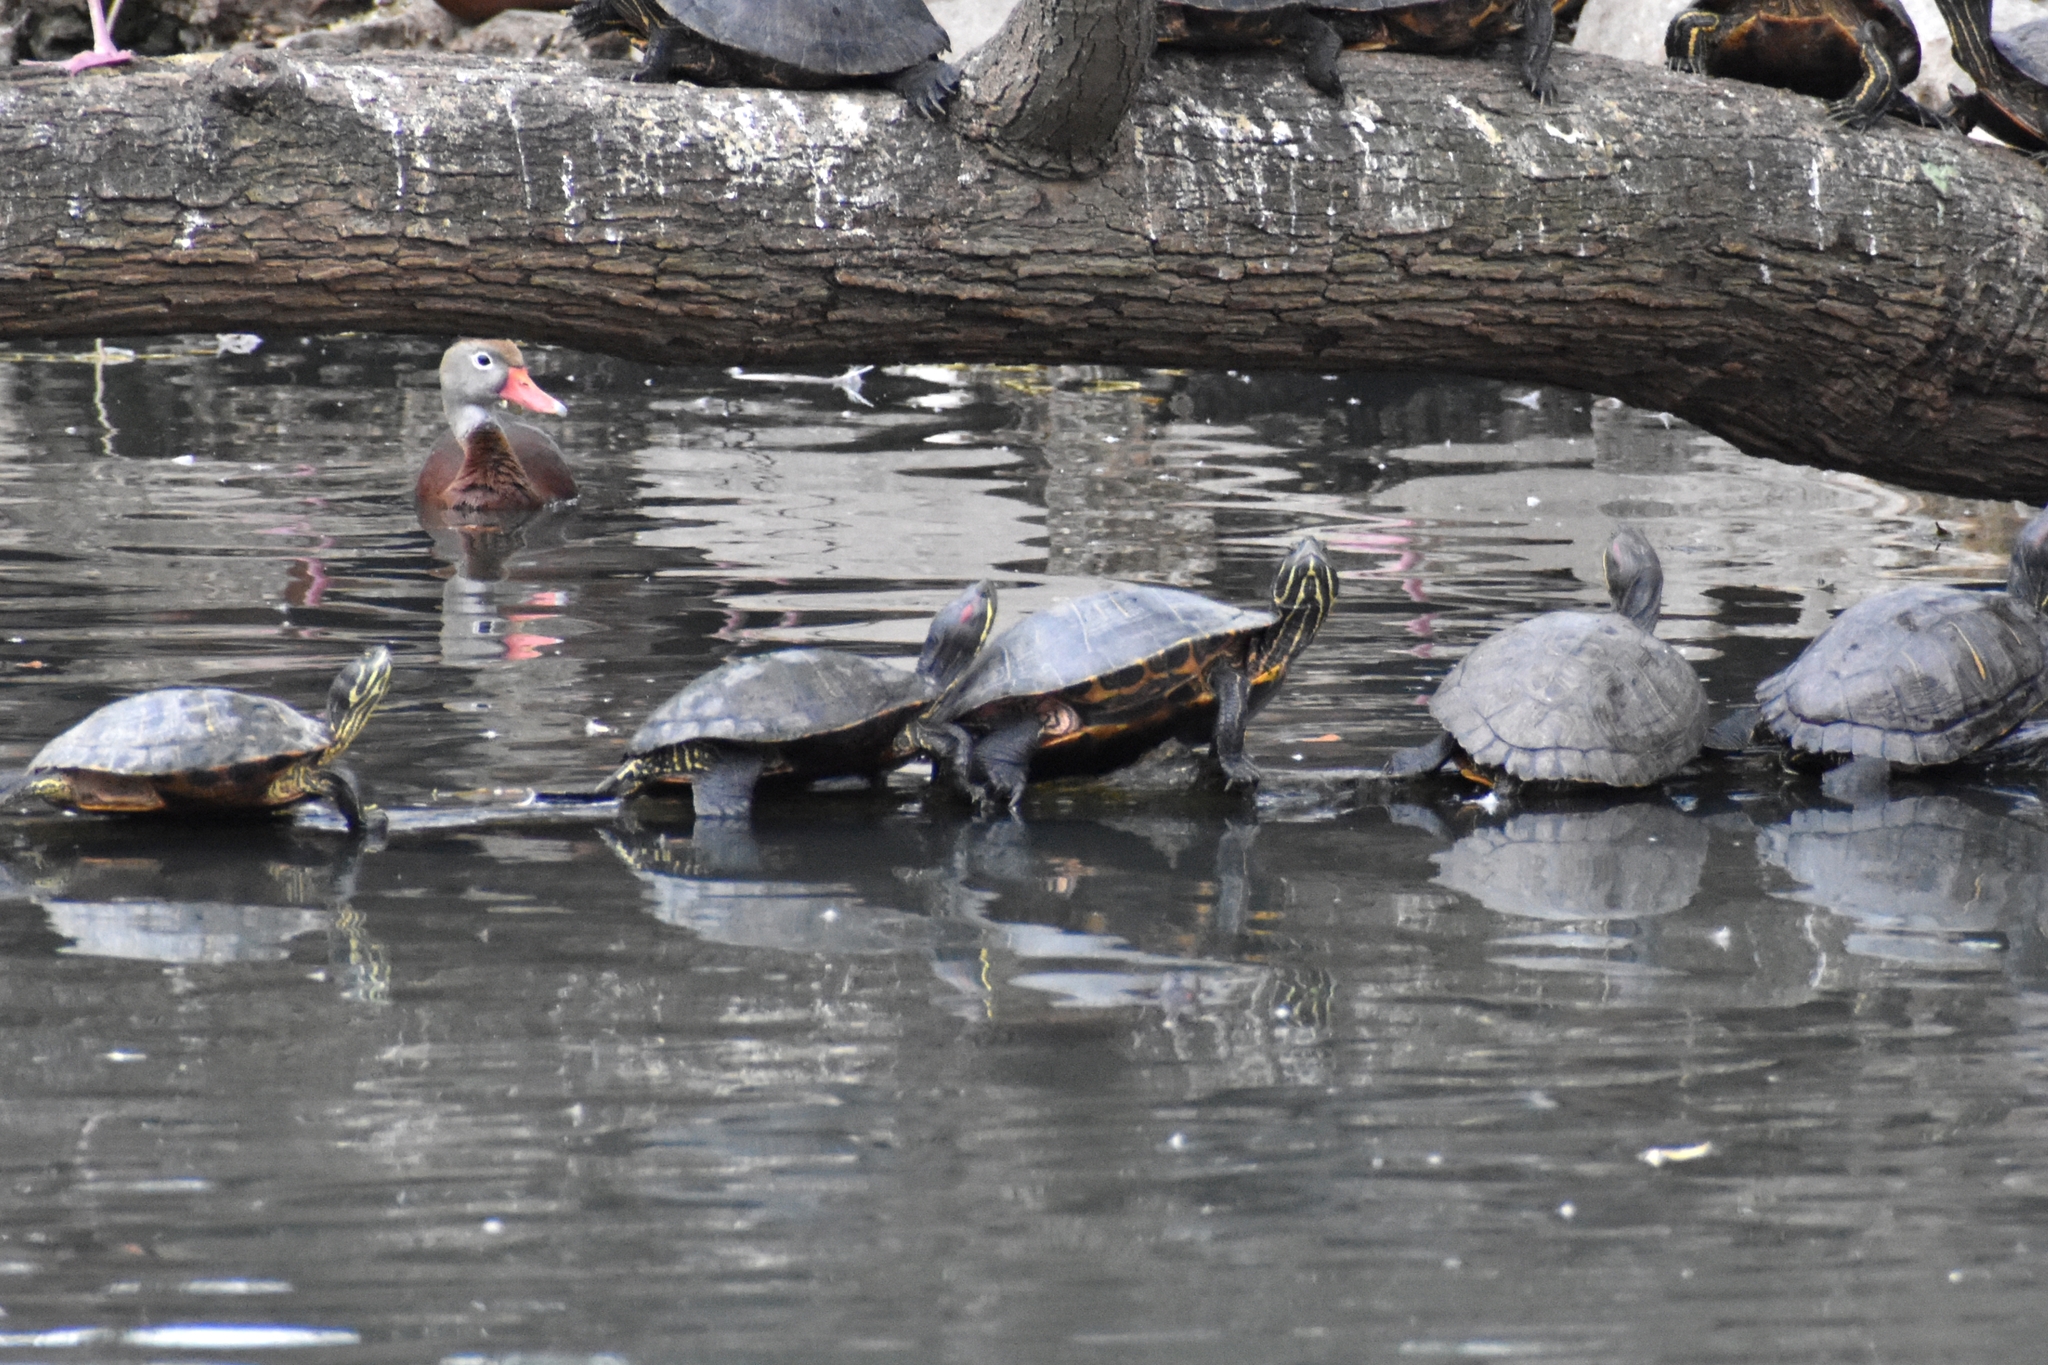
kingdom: Animalia
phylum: Chordata
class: Testudines
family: Emydidae
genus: Trachemys
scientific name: Trachemys scripta
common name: Slider
